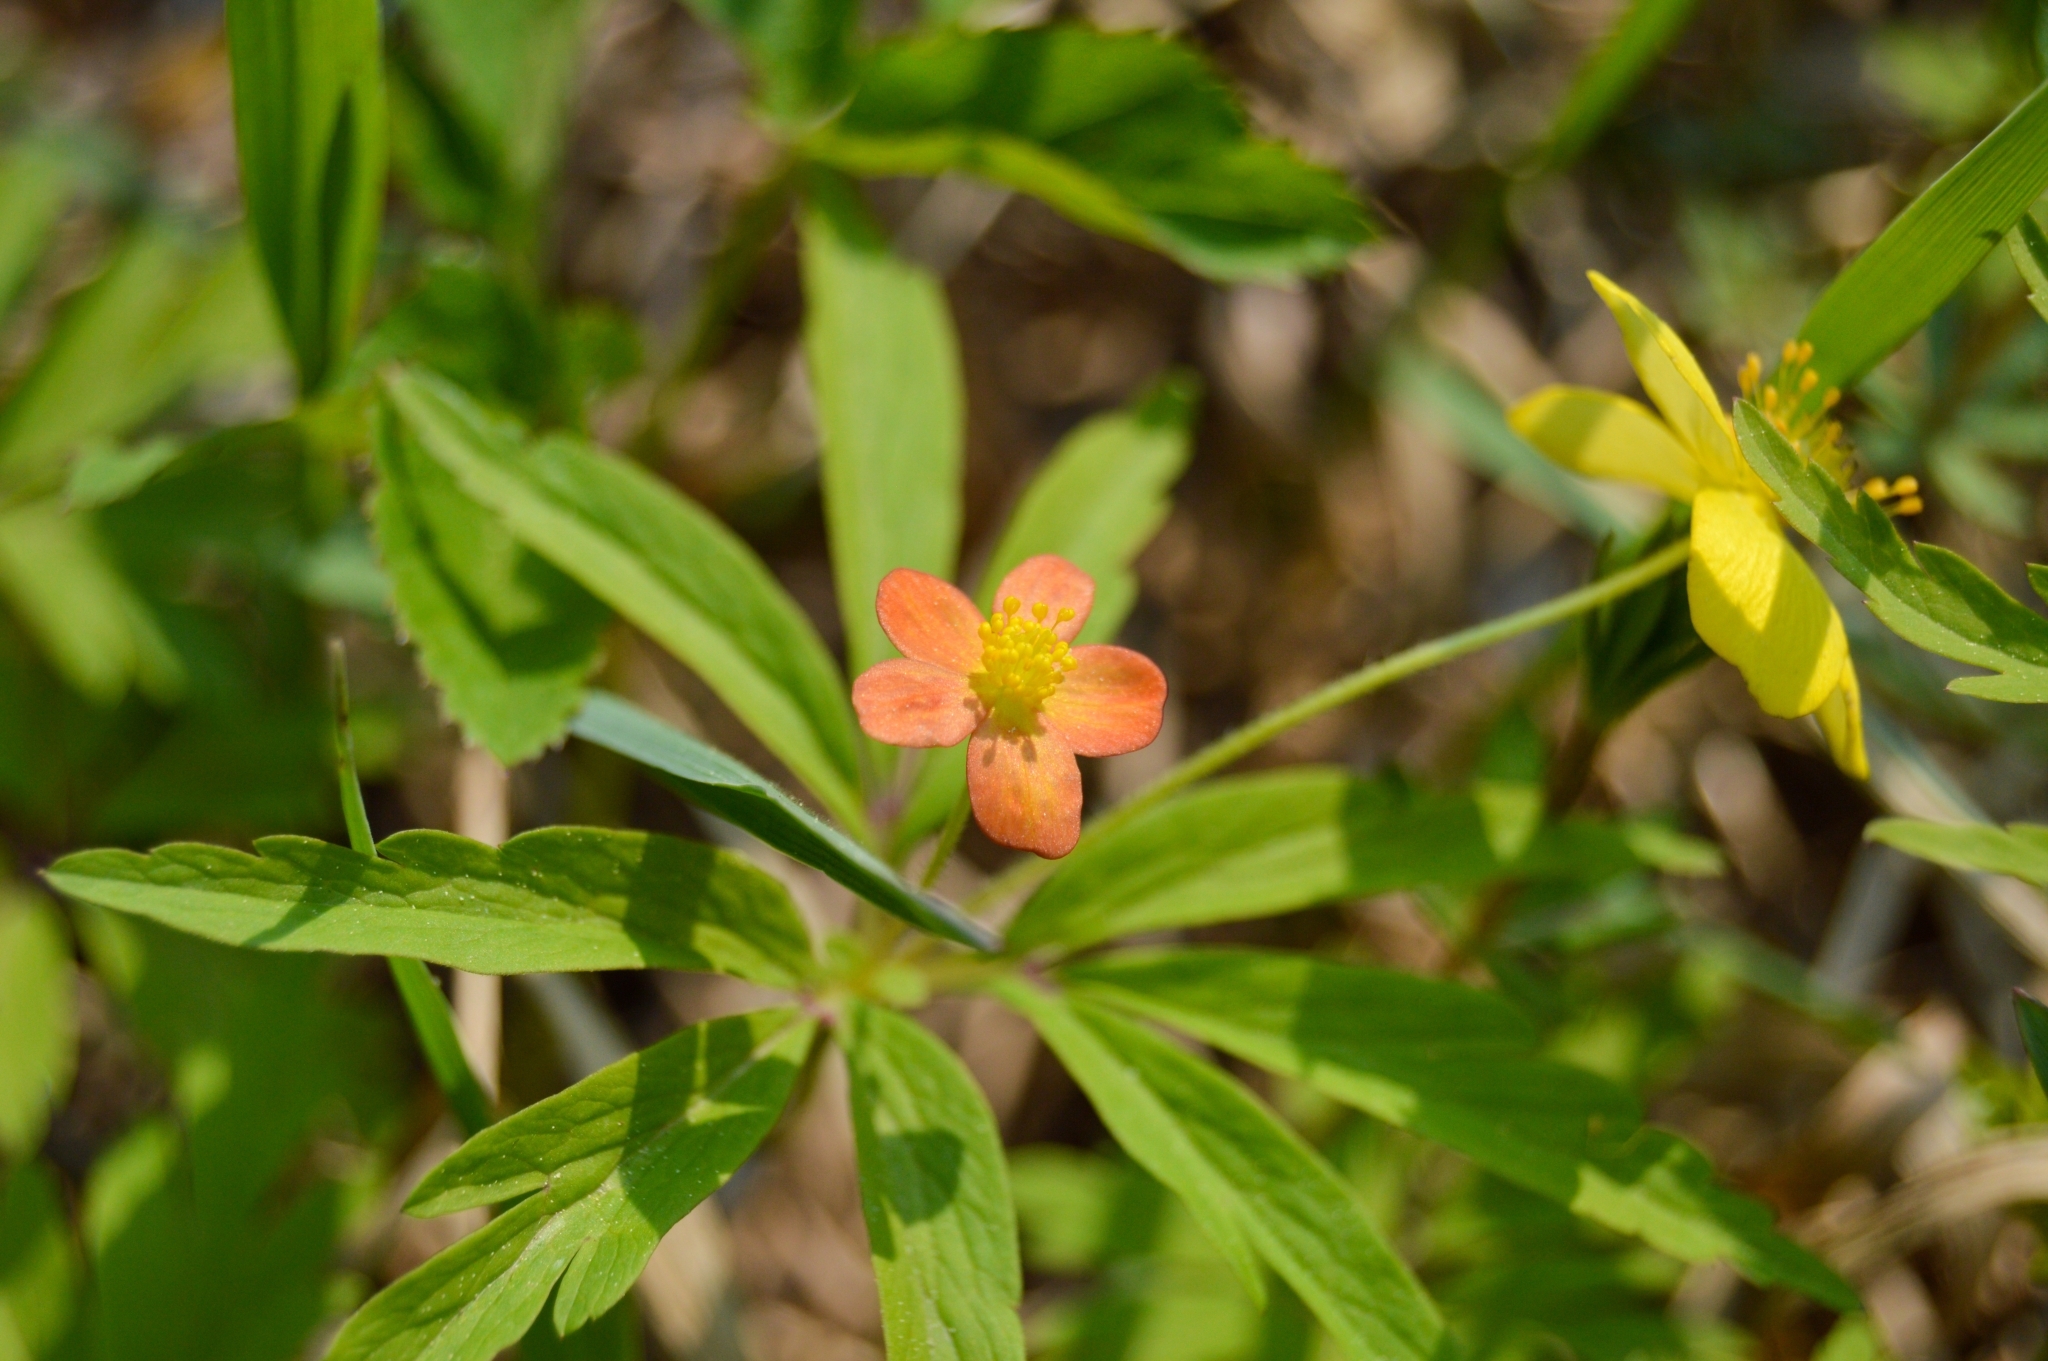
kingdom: Plantae
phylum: Tracheophyta
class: Magnoliopsida
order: Ranunculales
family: Ranunculaceae
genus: Anemone
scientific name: Anemone uralensis
